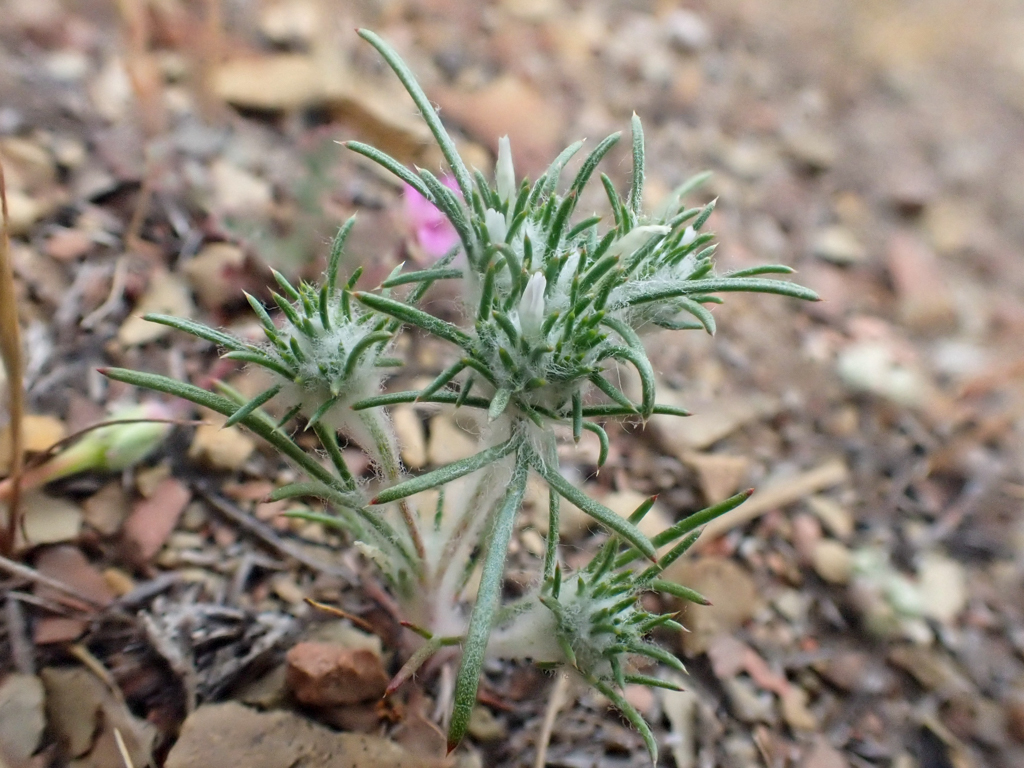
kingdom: Plantae
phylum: Tracheophyta
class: Magnoliopsida
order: Ericales
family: Polemoniaceae
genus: Eriastrum
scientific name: Eriastrum abramsii
